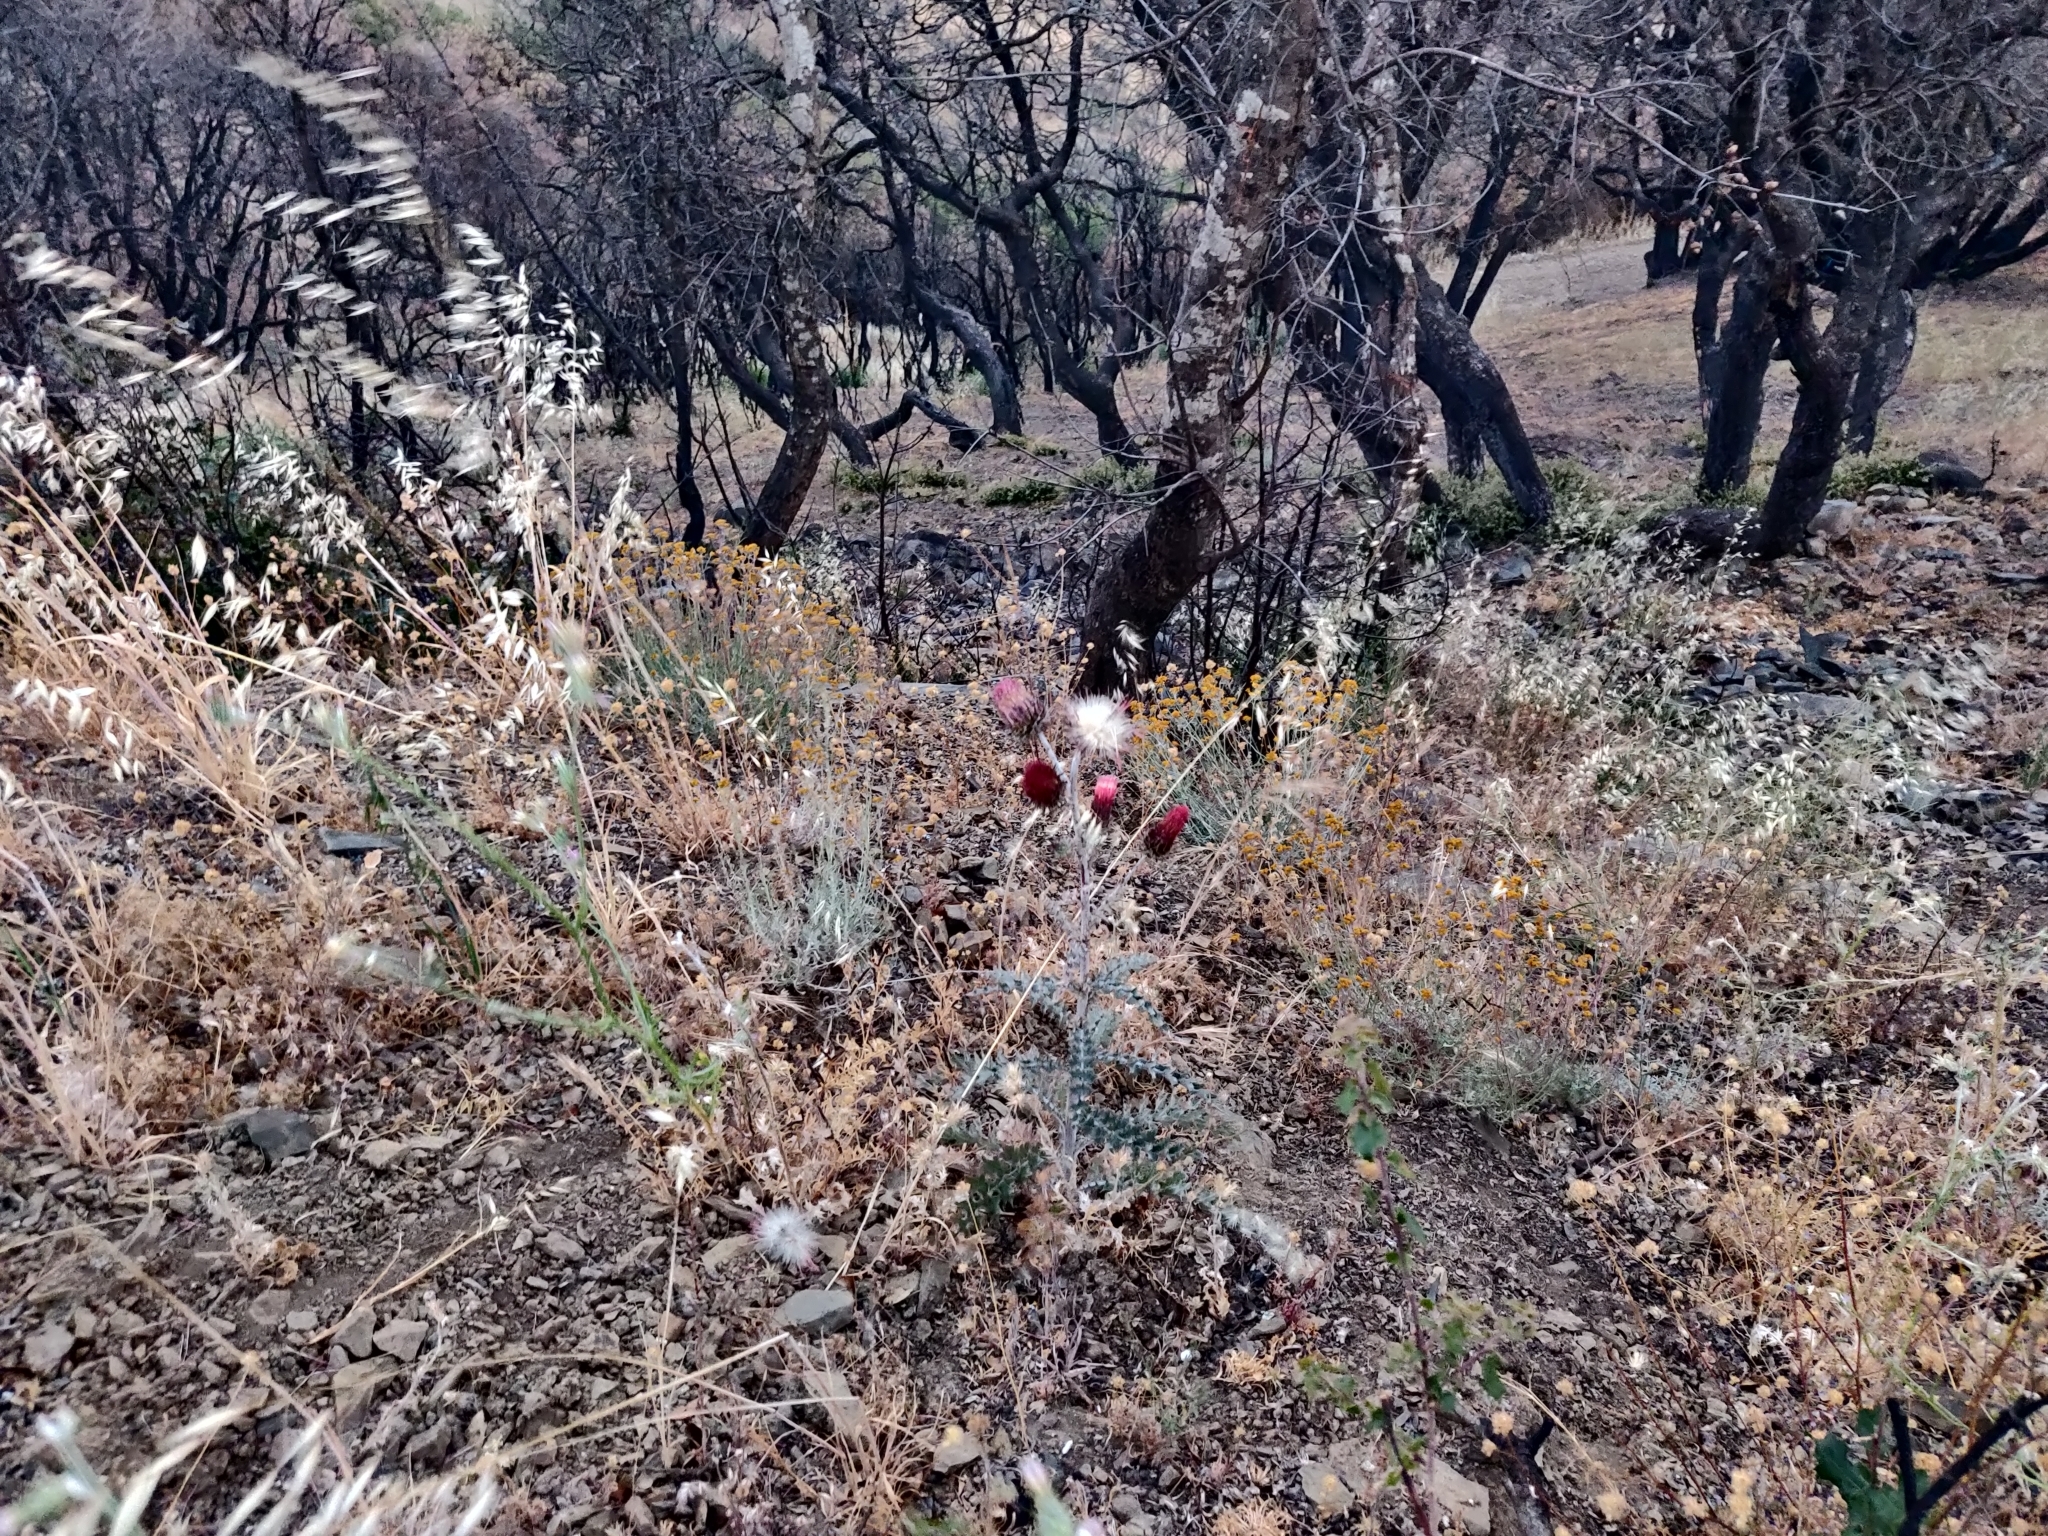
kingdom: Plantae
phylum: Tracheophyta
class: Magnoliopsida
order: Asterales
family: Asteraceae
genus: Cirsium
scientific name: Cirsium occidentale
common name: Western thistle
